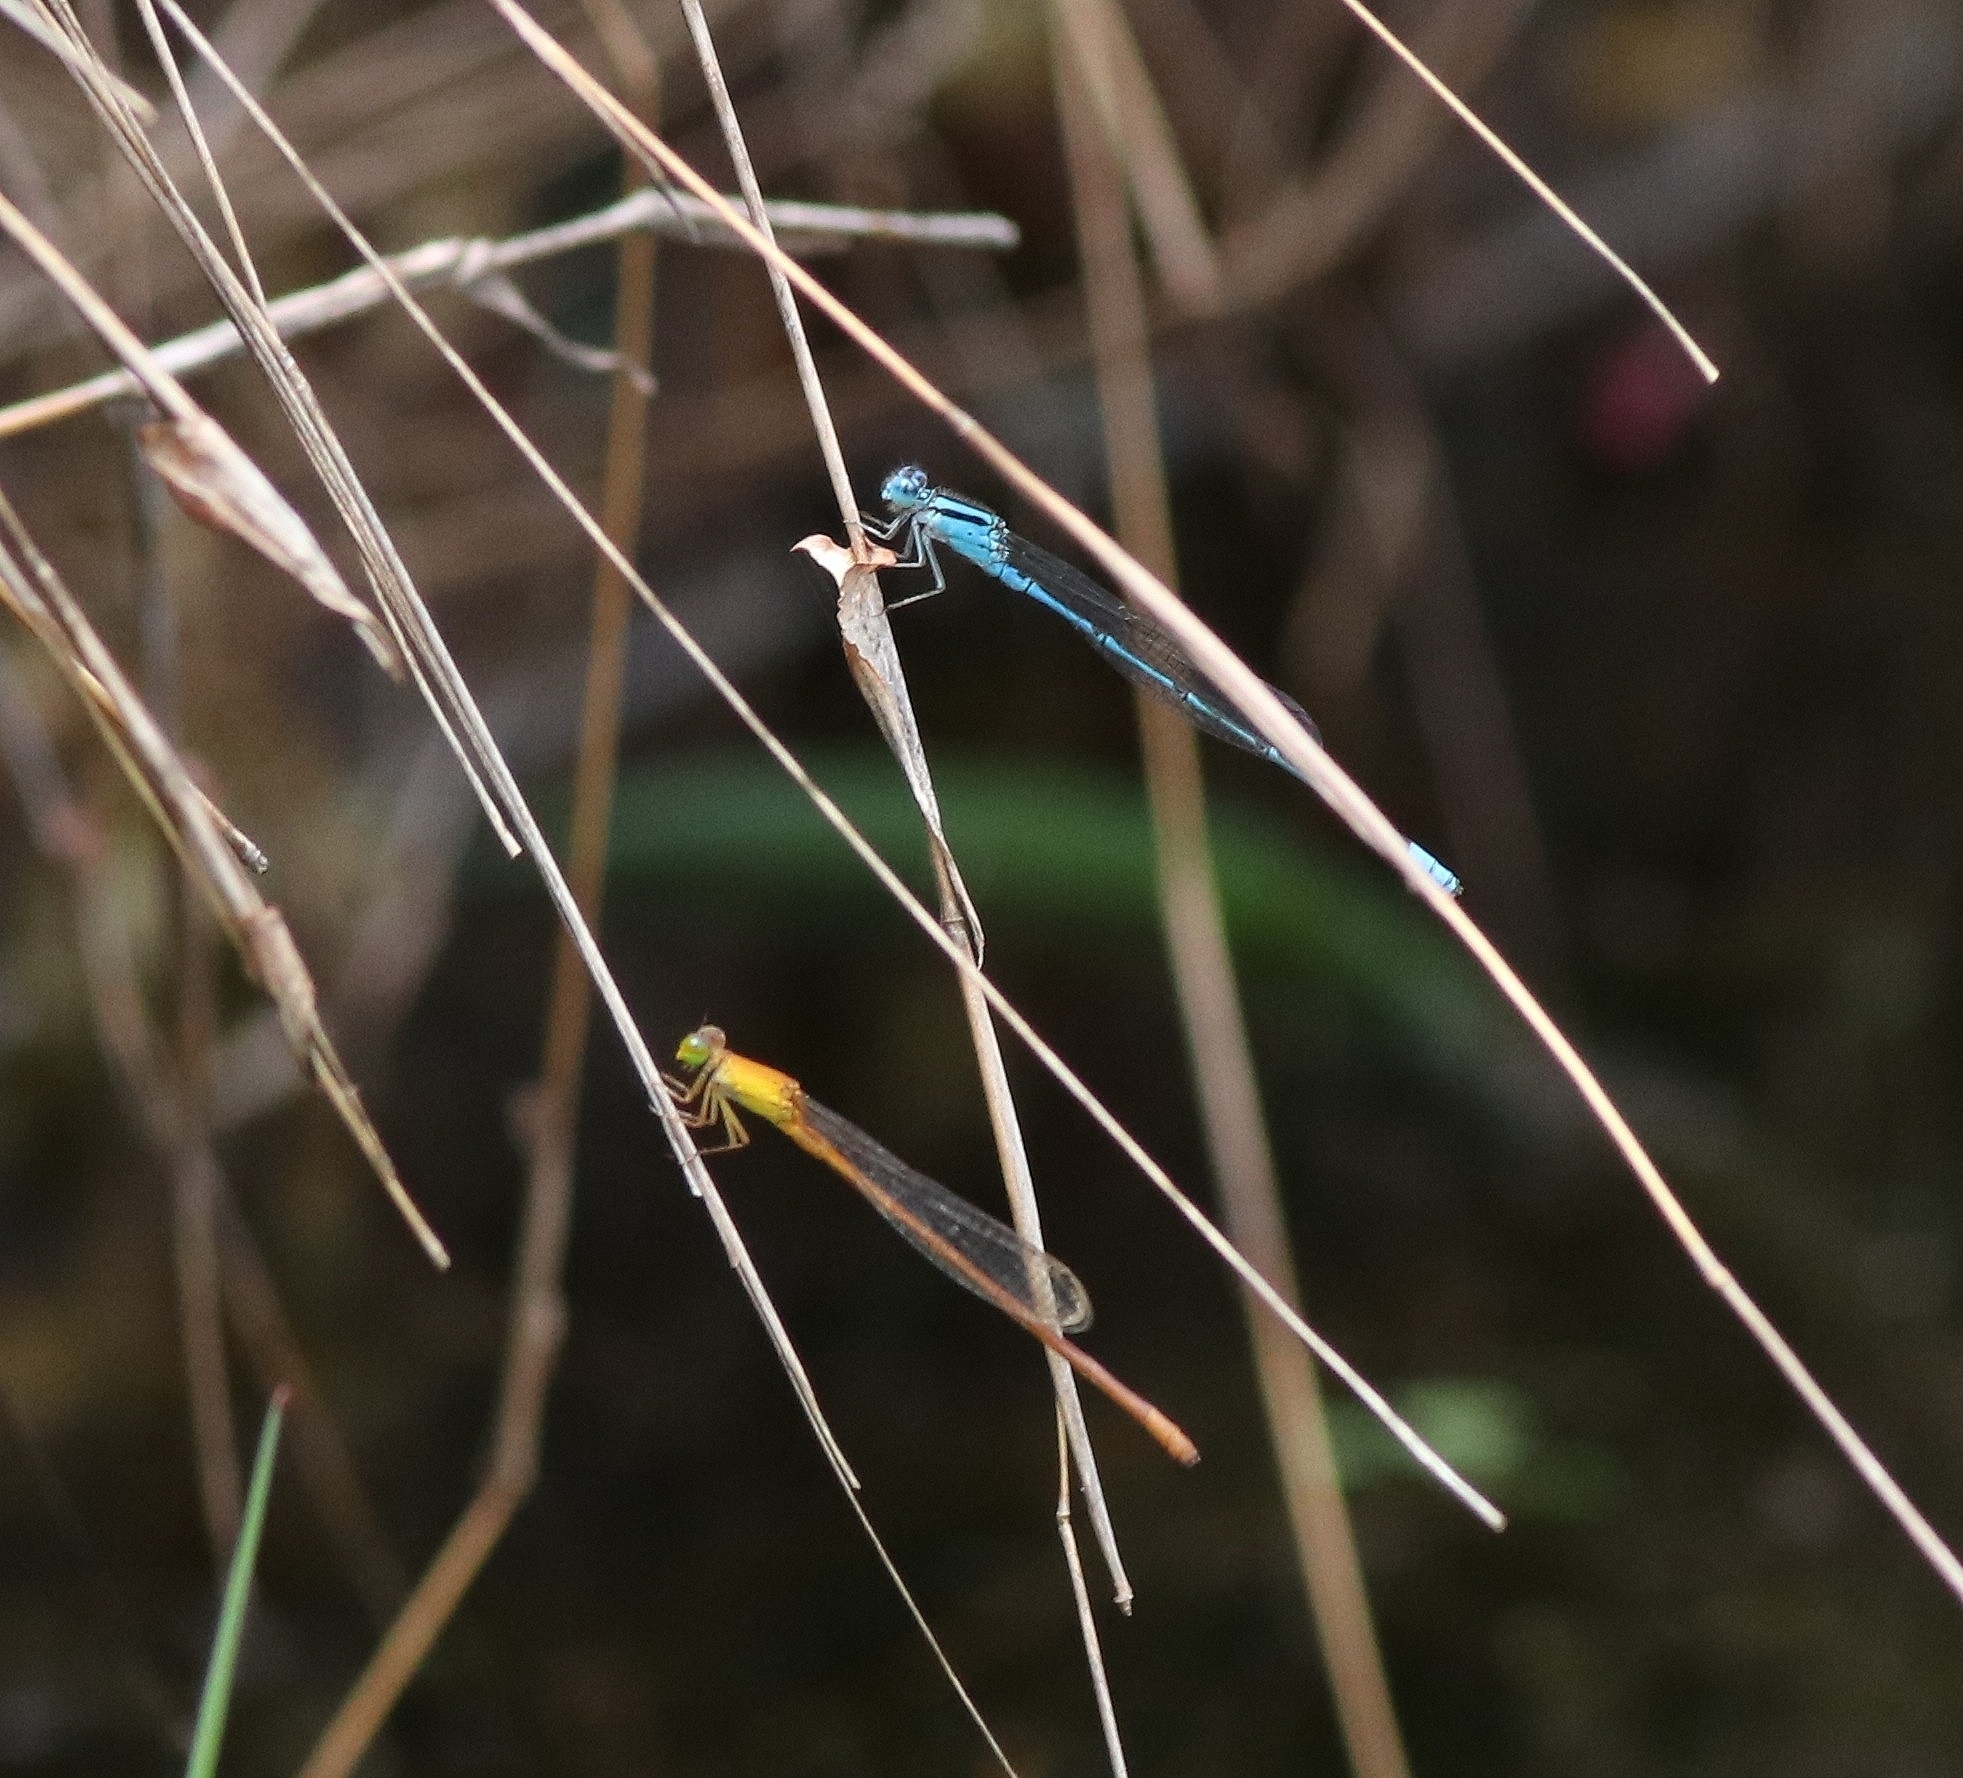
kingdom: Animalia
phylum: Arthropoda
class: Insecta
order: Odonata
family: Coenagrionidae
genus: Ceriagrion
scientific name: Ceriagrion rubiae
